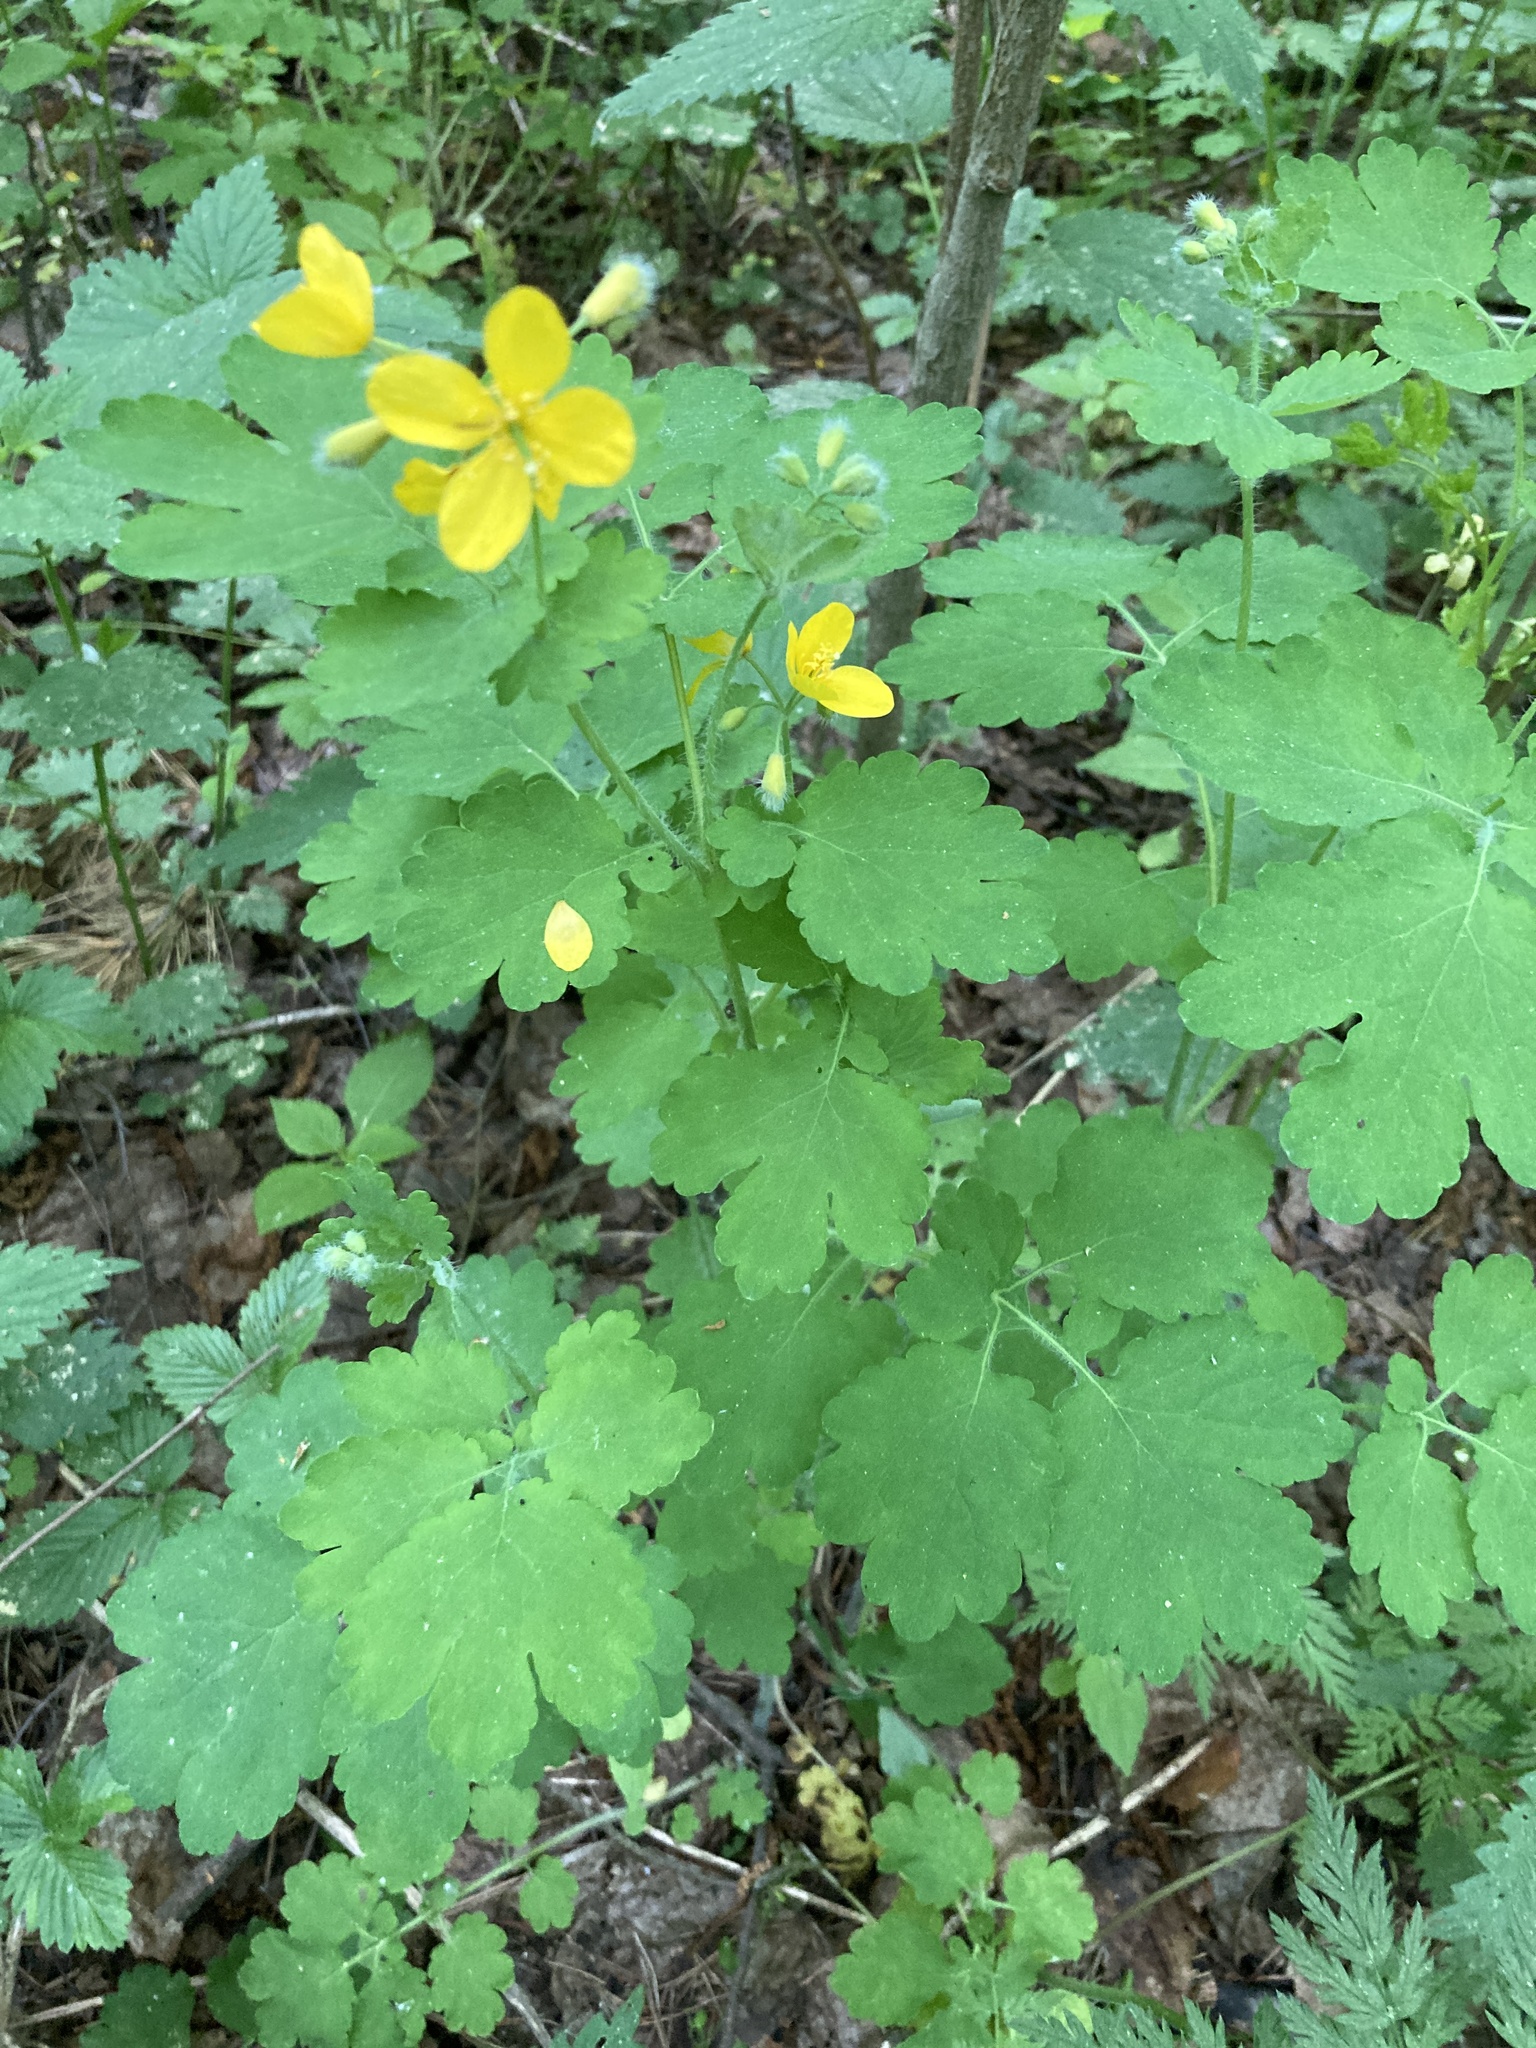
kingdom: Plantae
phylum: Tracheophyta
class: Magnoliopsida
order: Ranunculales
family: Papaveraceae
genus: Chelidonium
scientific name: Chelidonium majus
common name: Greater celandine
